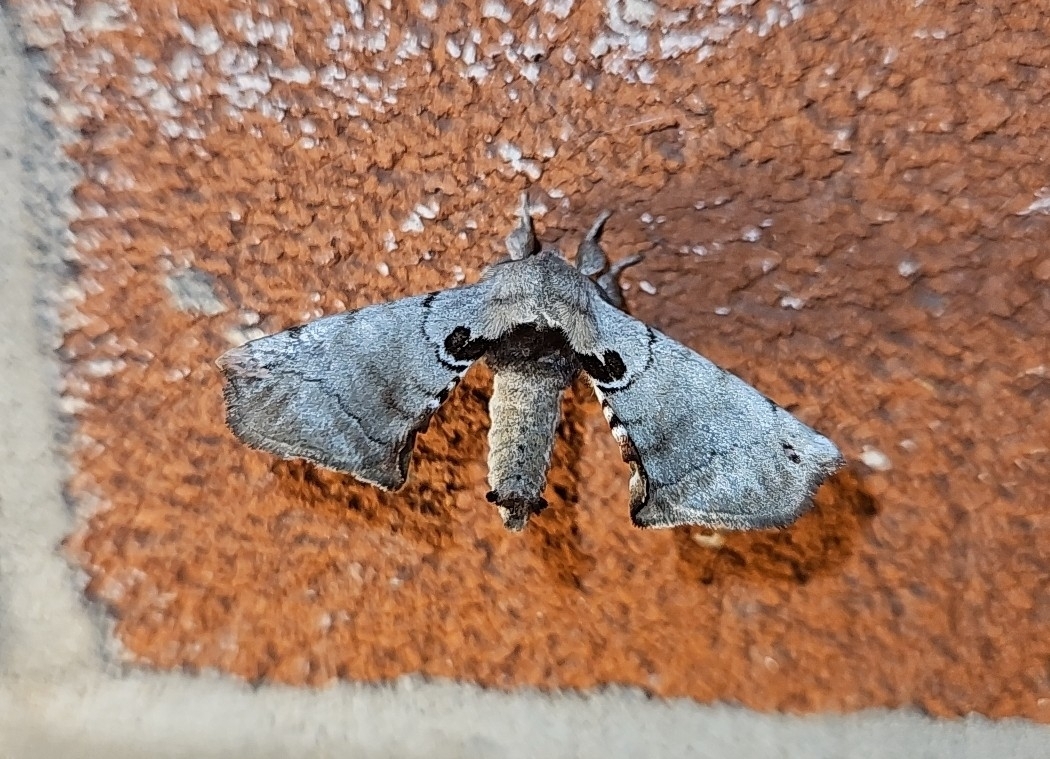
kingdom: Animalia
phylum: Arthropoda
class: Insecta
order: Lepidoptera
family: Apatelodidae
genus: Hygrochroa
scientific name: Hygrochroa Apatelodes torrefacta
